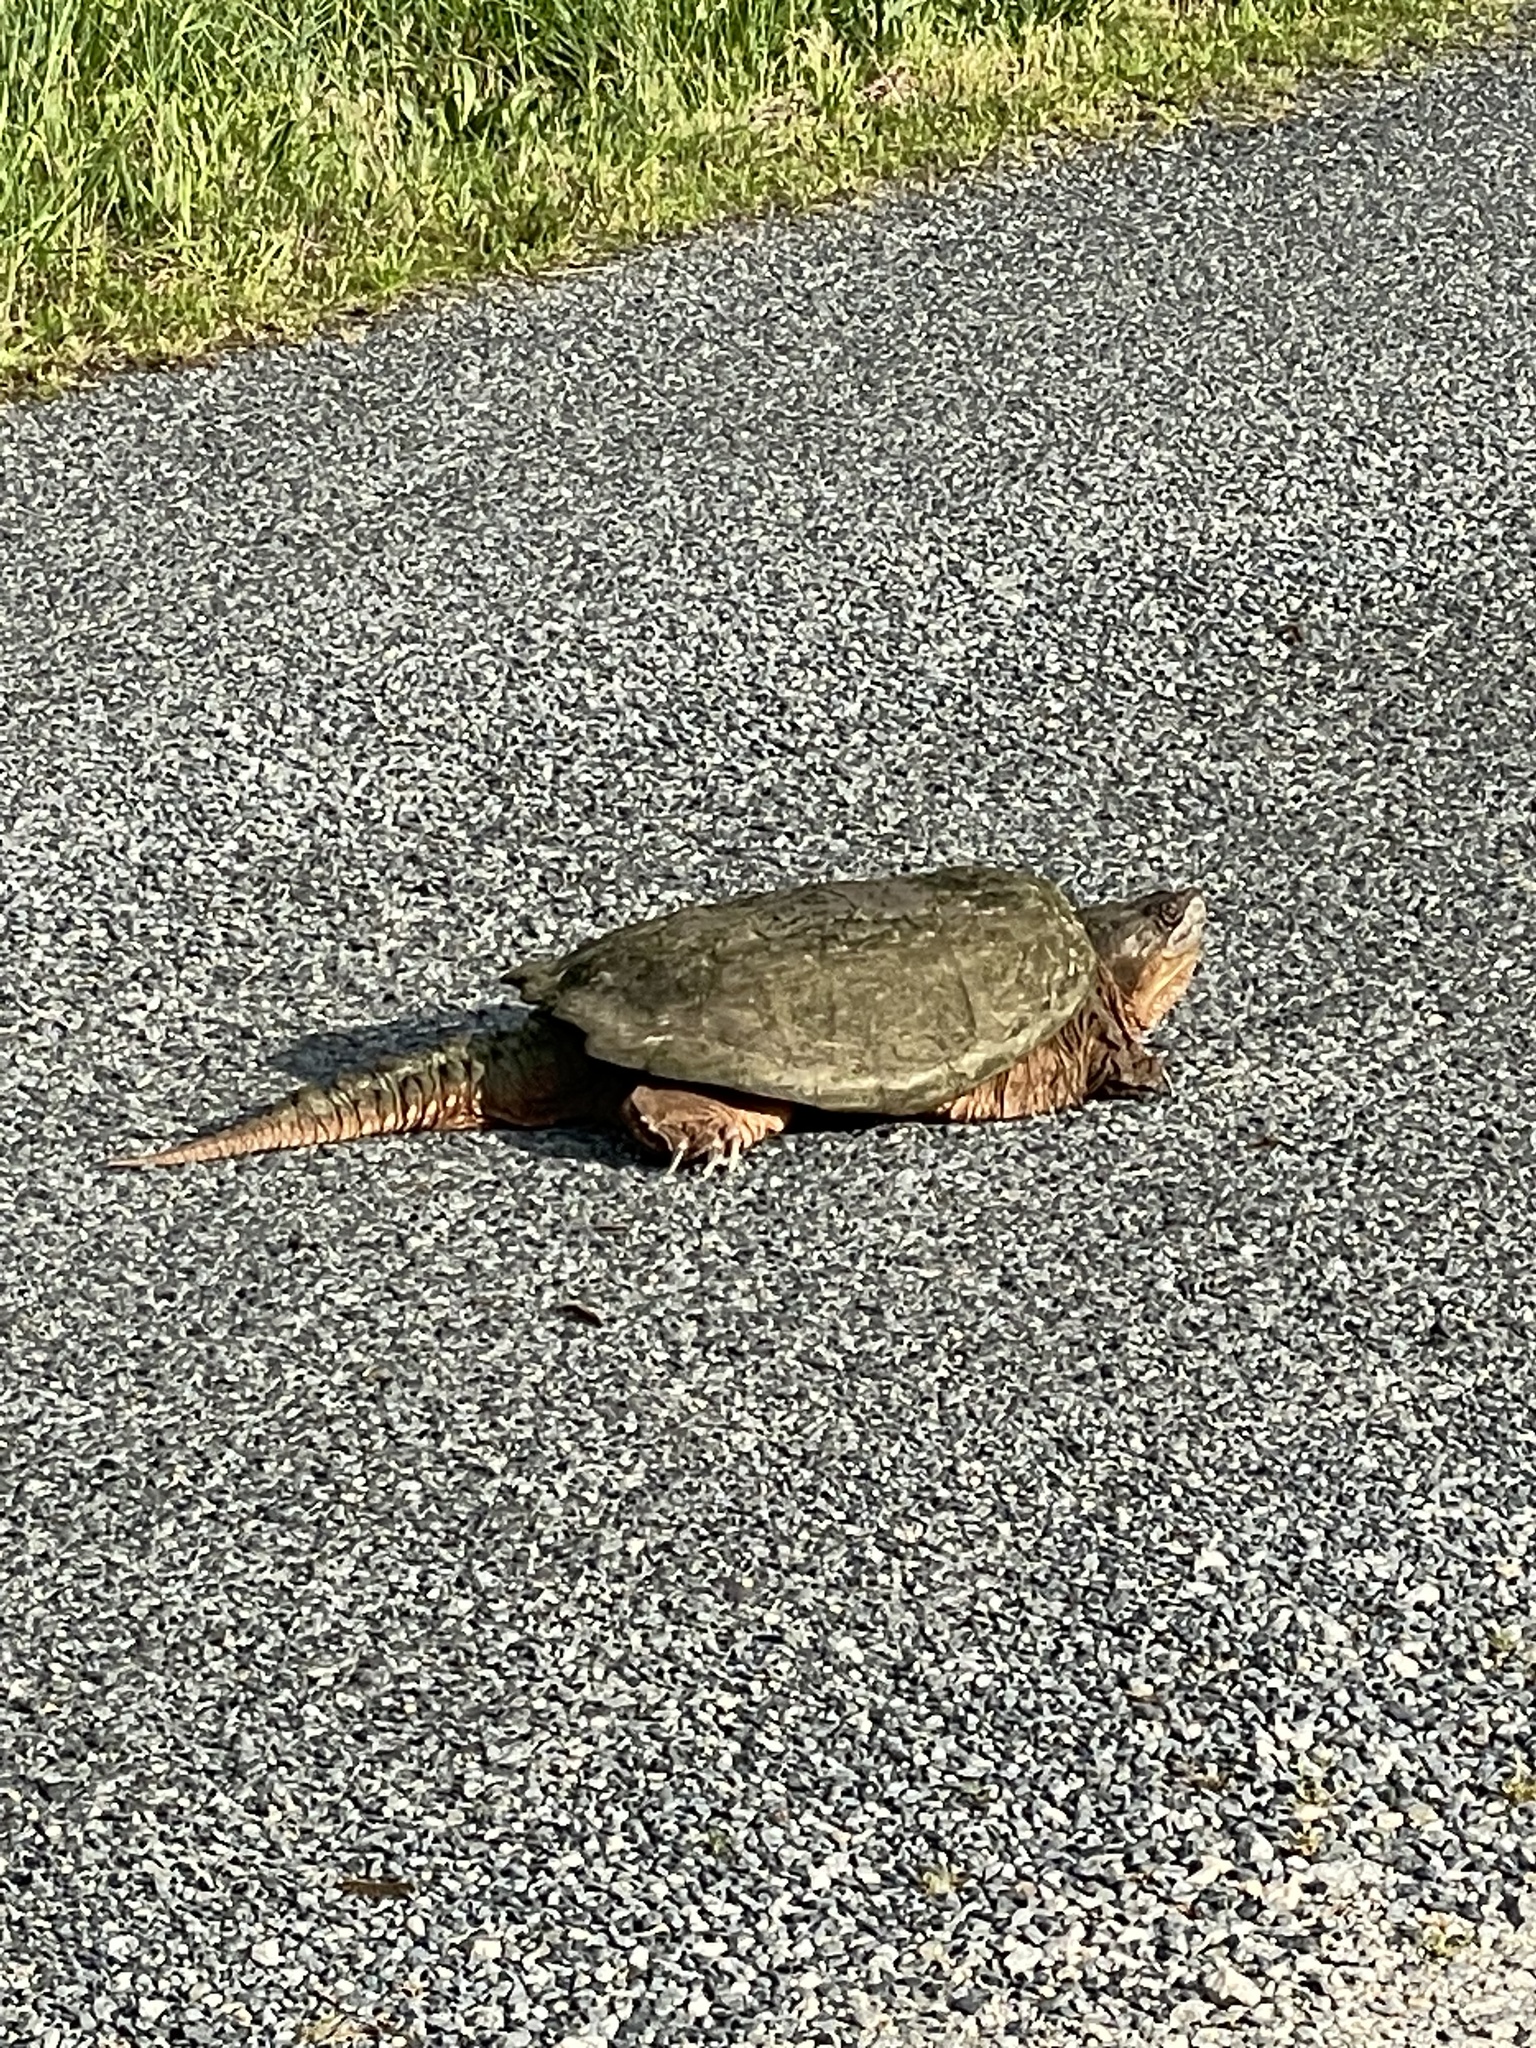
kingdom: Animalia
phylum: Chordata
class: Testudines
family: Chelydridae
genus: Chelydra
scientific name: Chelydra serpentina
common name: Common snapping turtle
